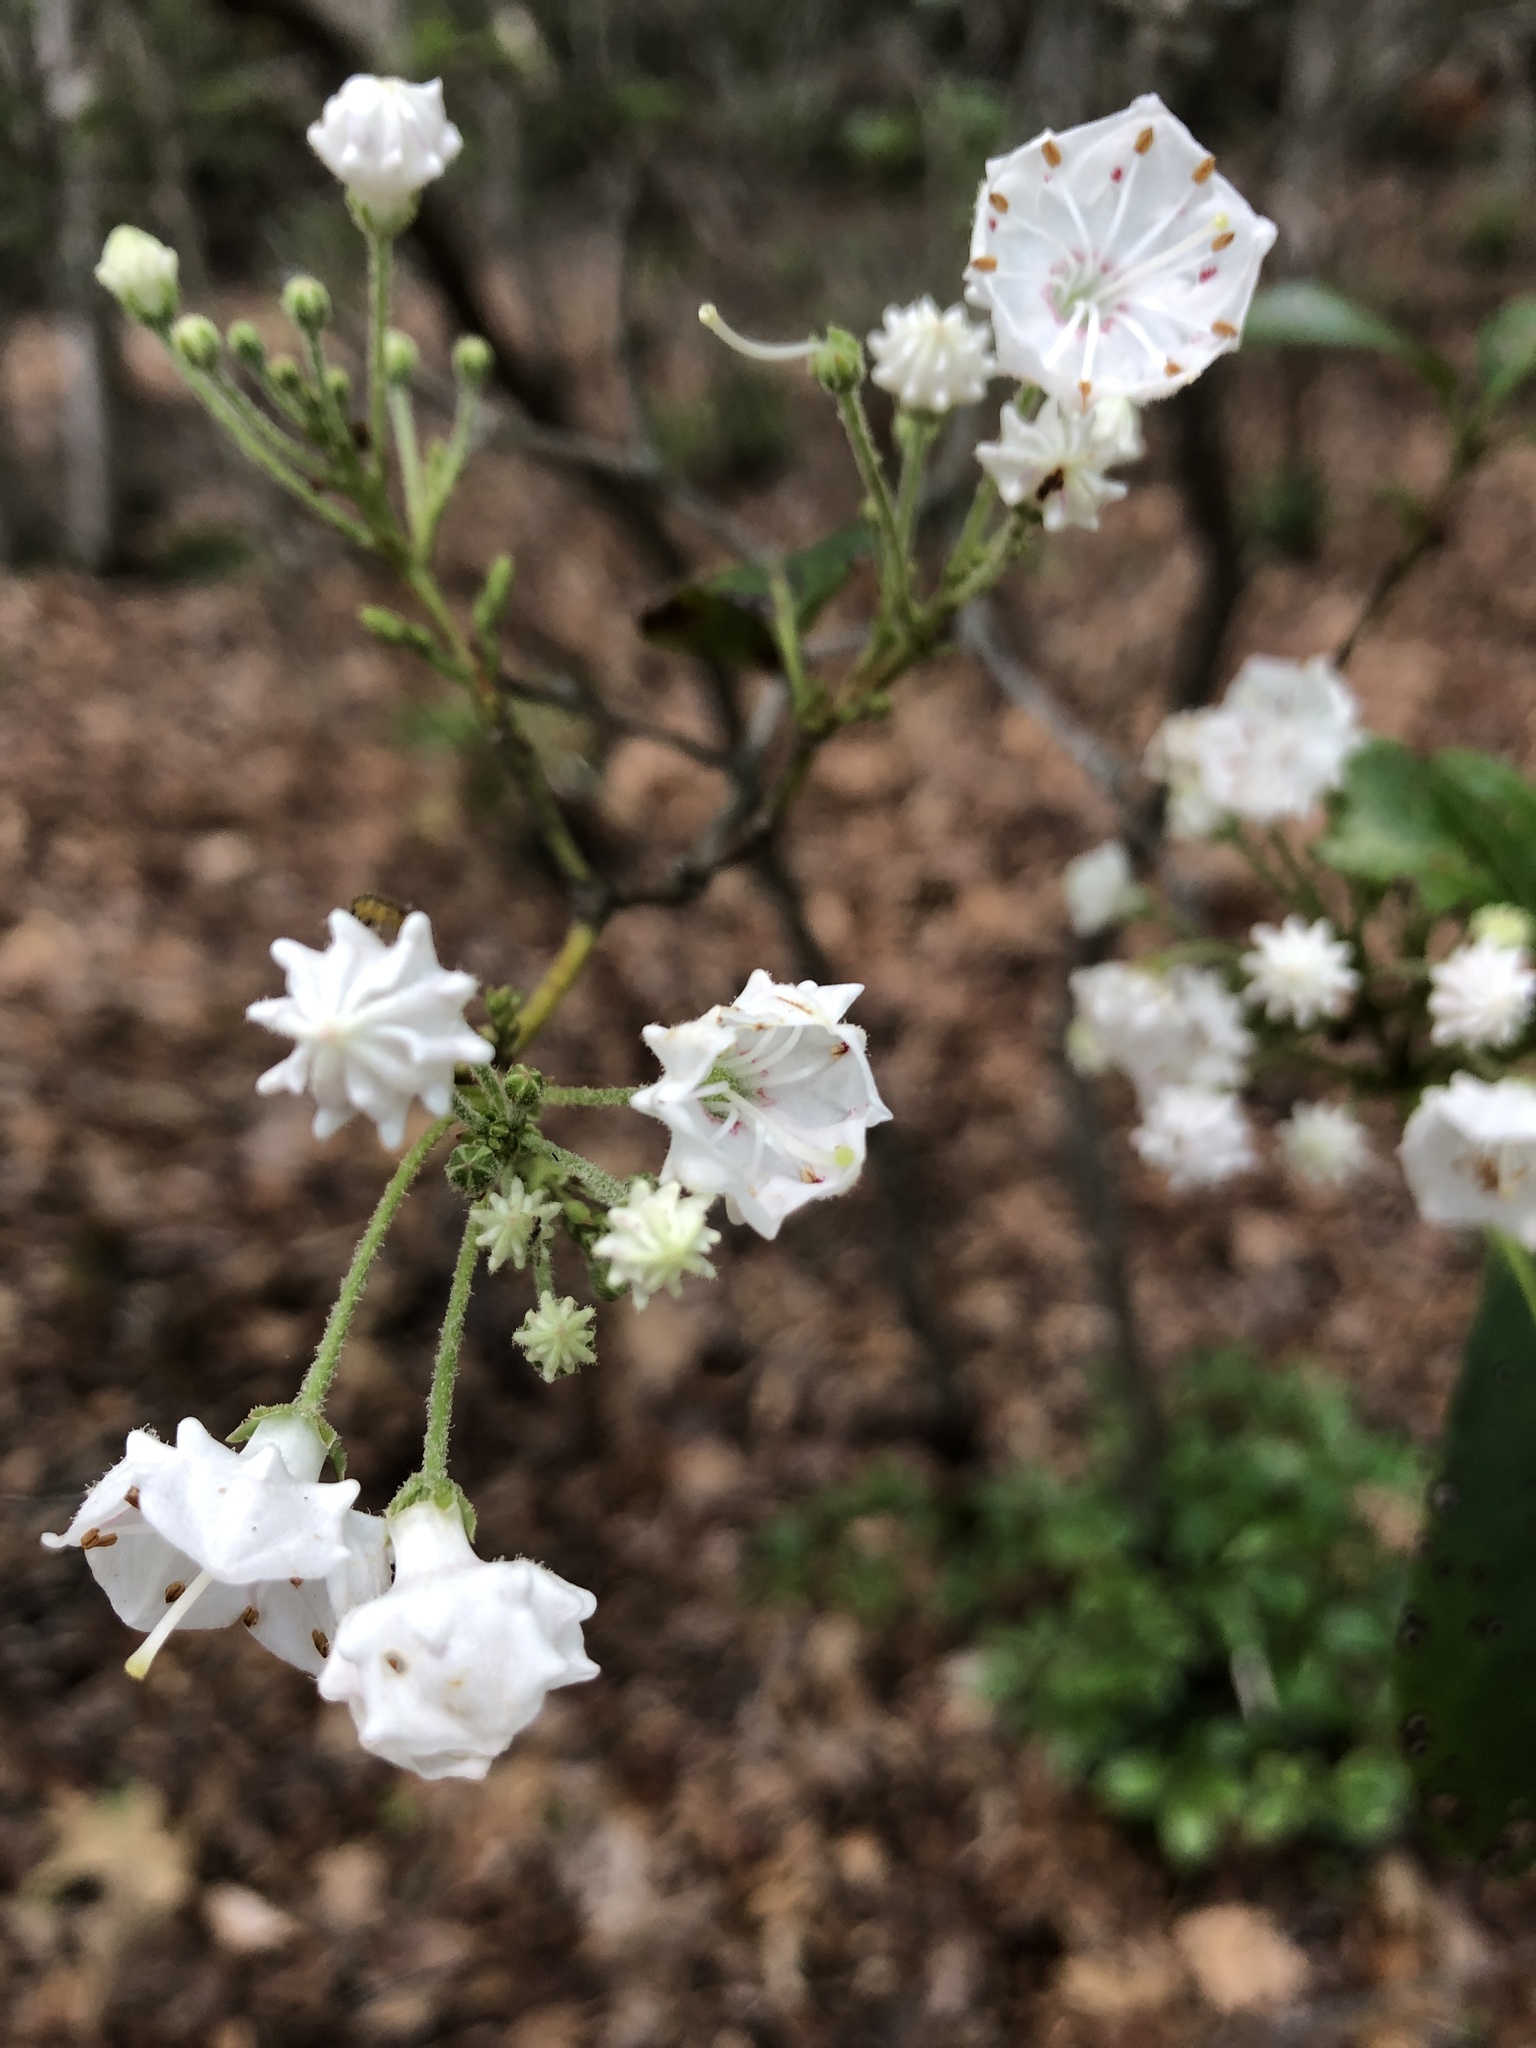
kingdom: Plantae
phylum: Tracheophyta
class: Magnoliopsida
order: Ericales
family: Ericaceae
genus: Kalmia
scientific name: Kalmia latifolia
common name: Mountain-laurel
